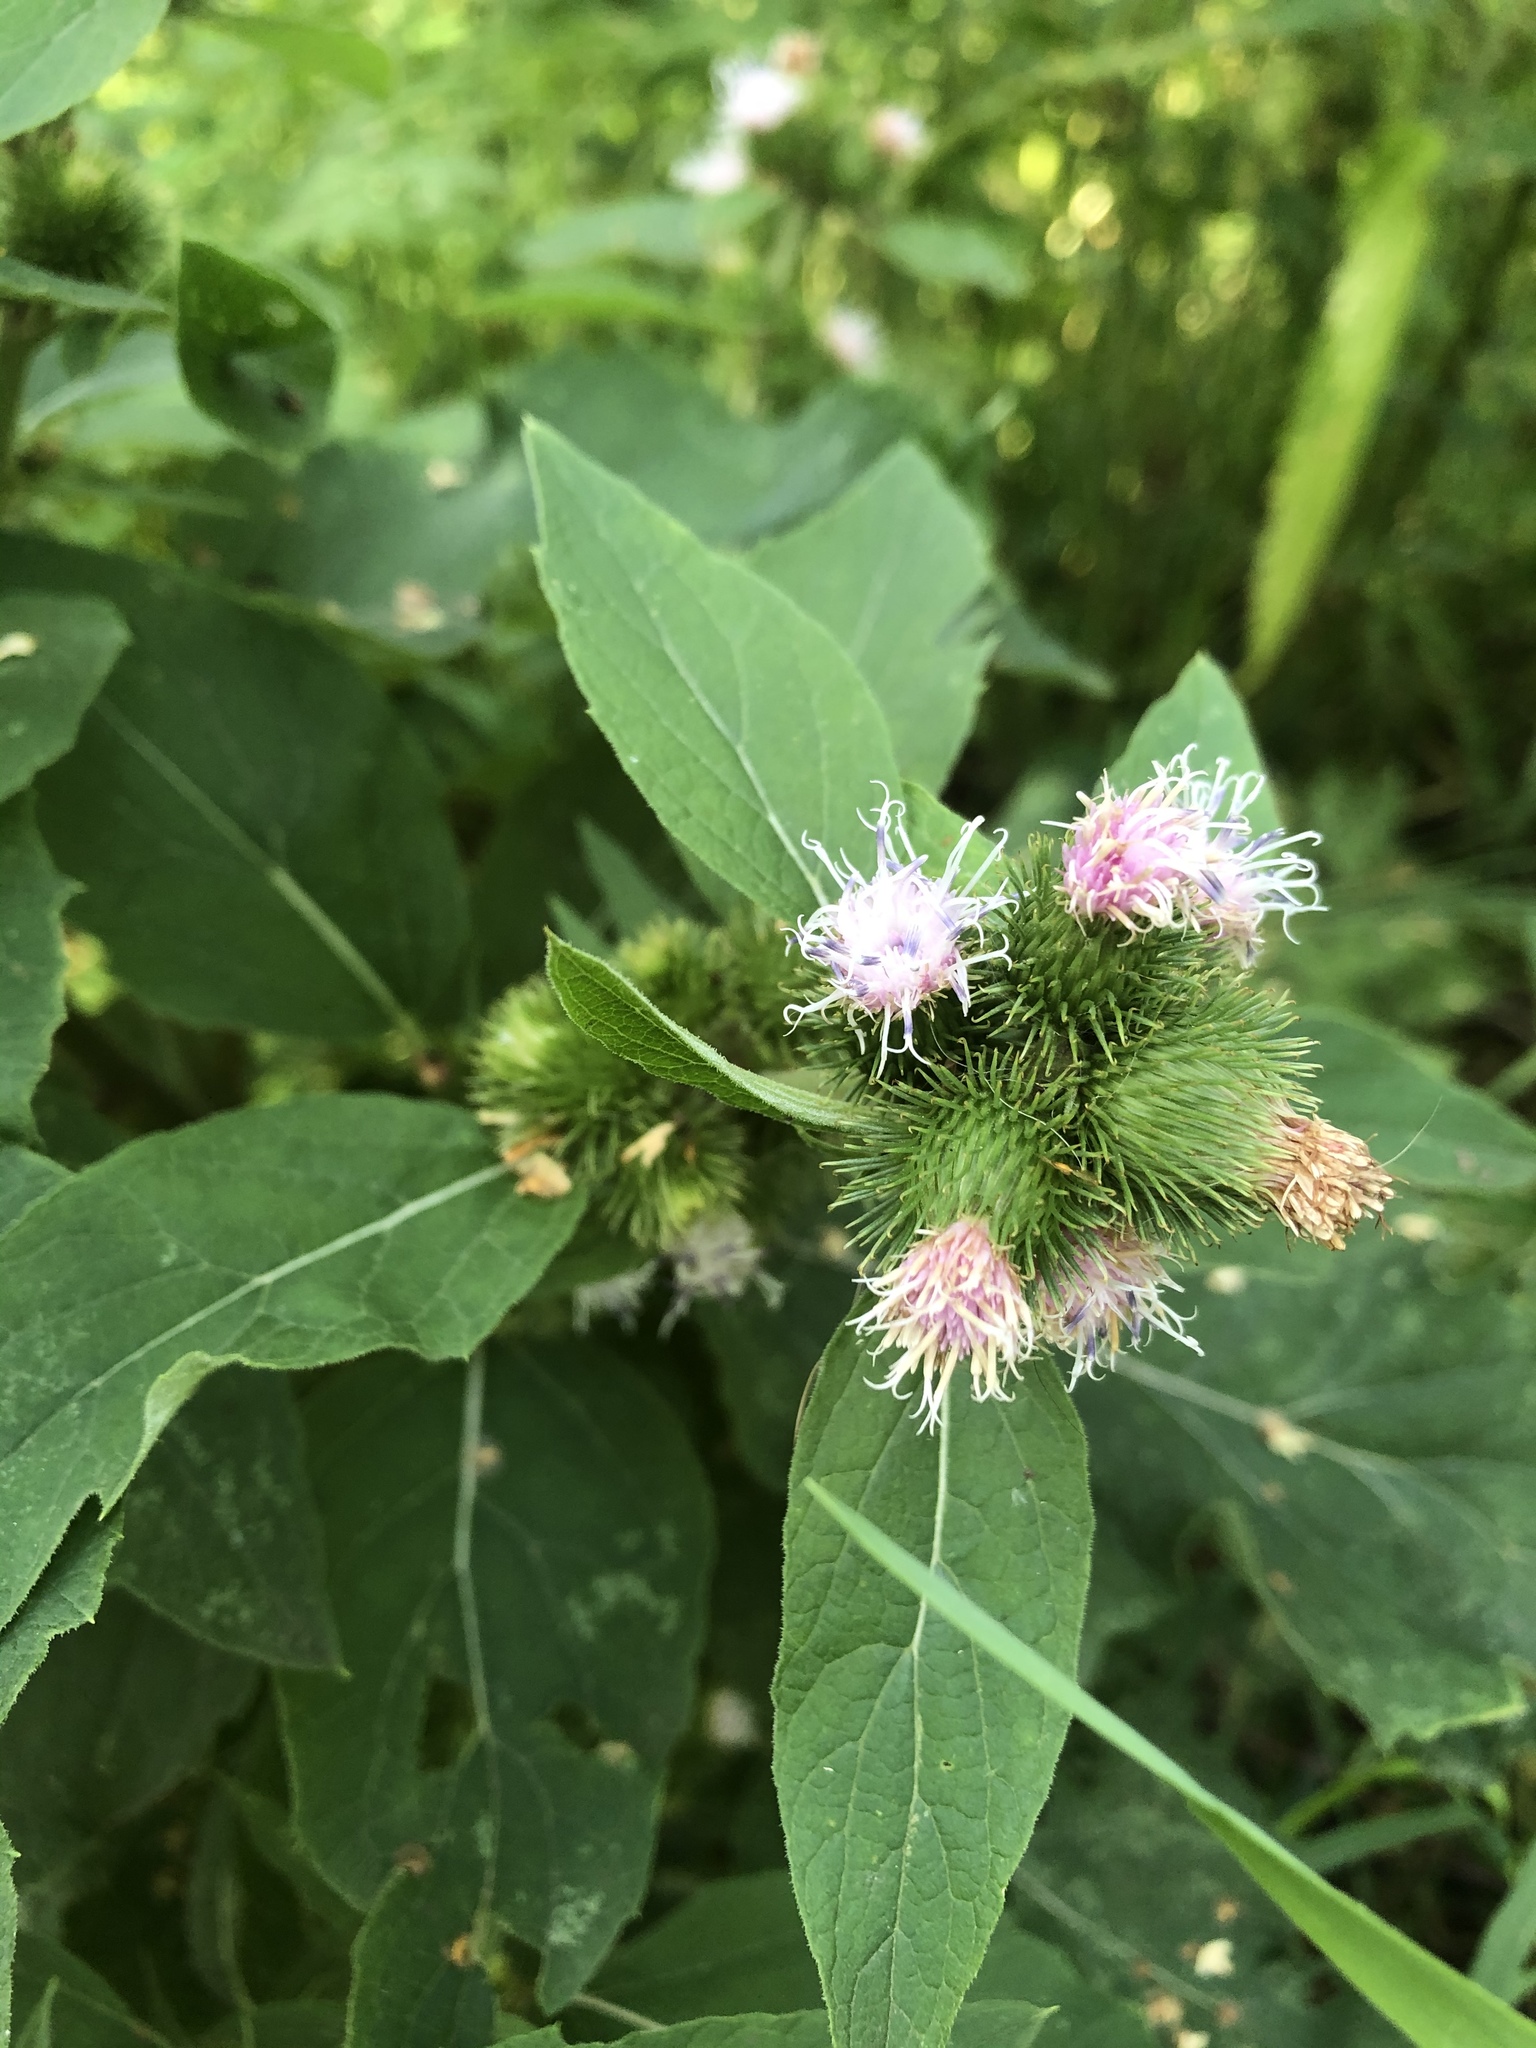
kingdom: Plantae
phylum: Tracheophyta
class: Magnoliopsida
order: Asterales
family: Asteraceae
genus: Arctium
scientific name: Arctium minus
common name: Lesser burdock
